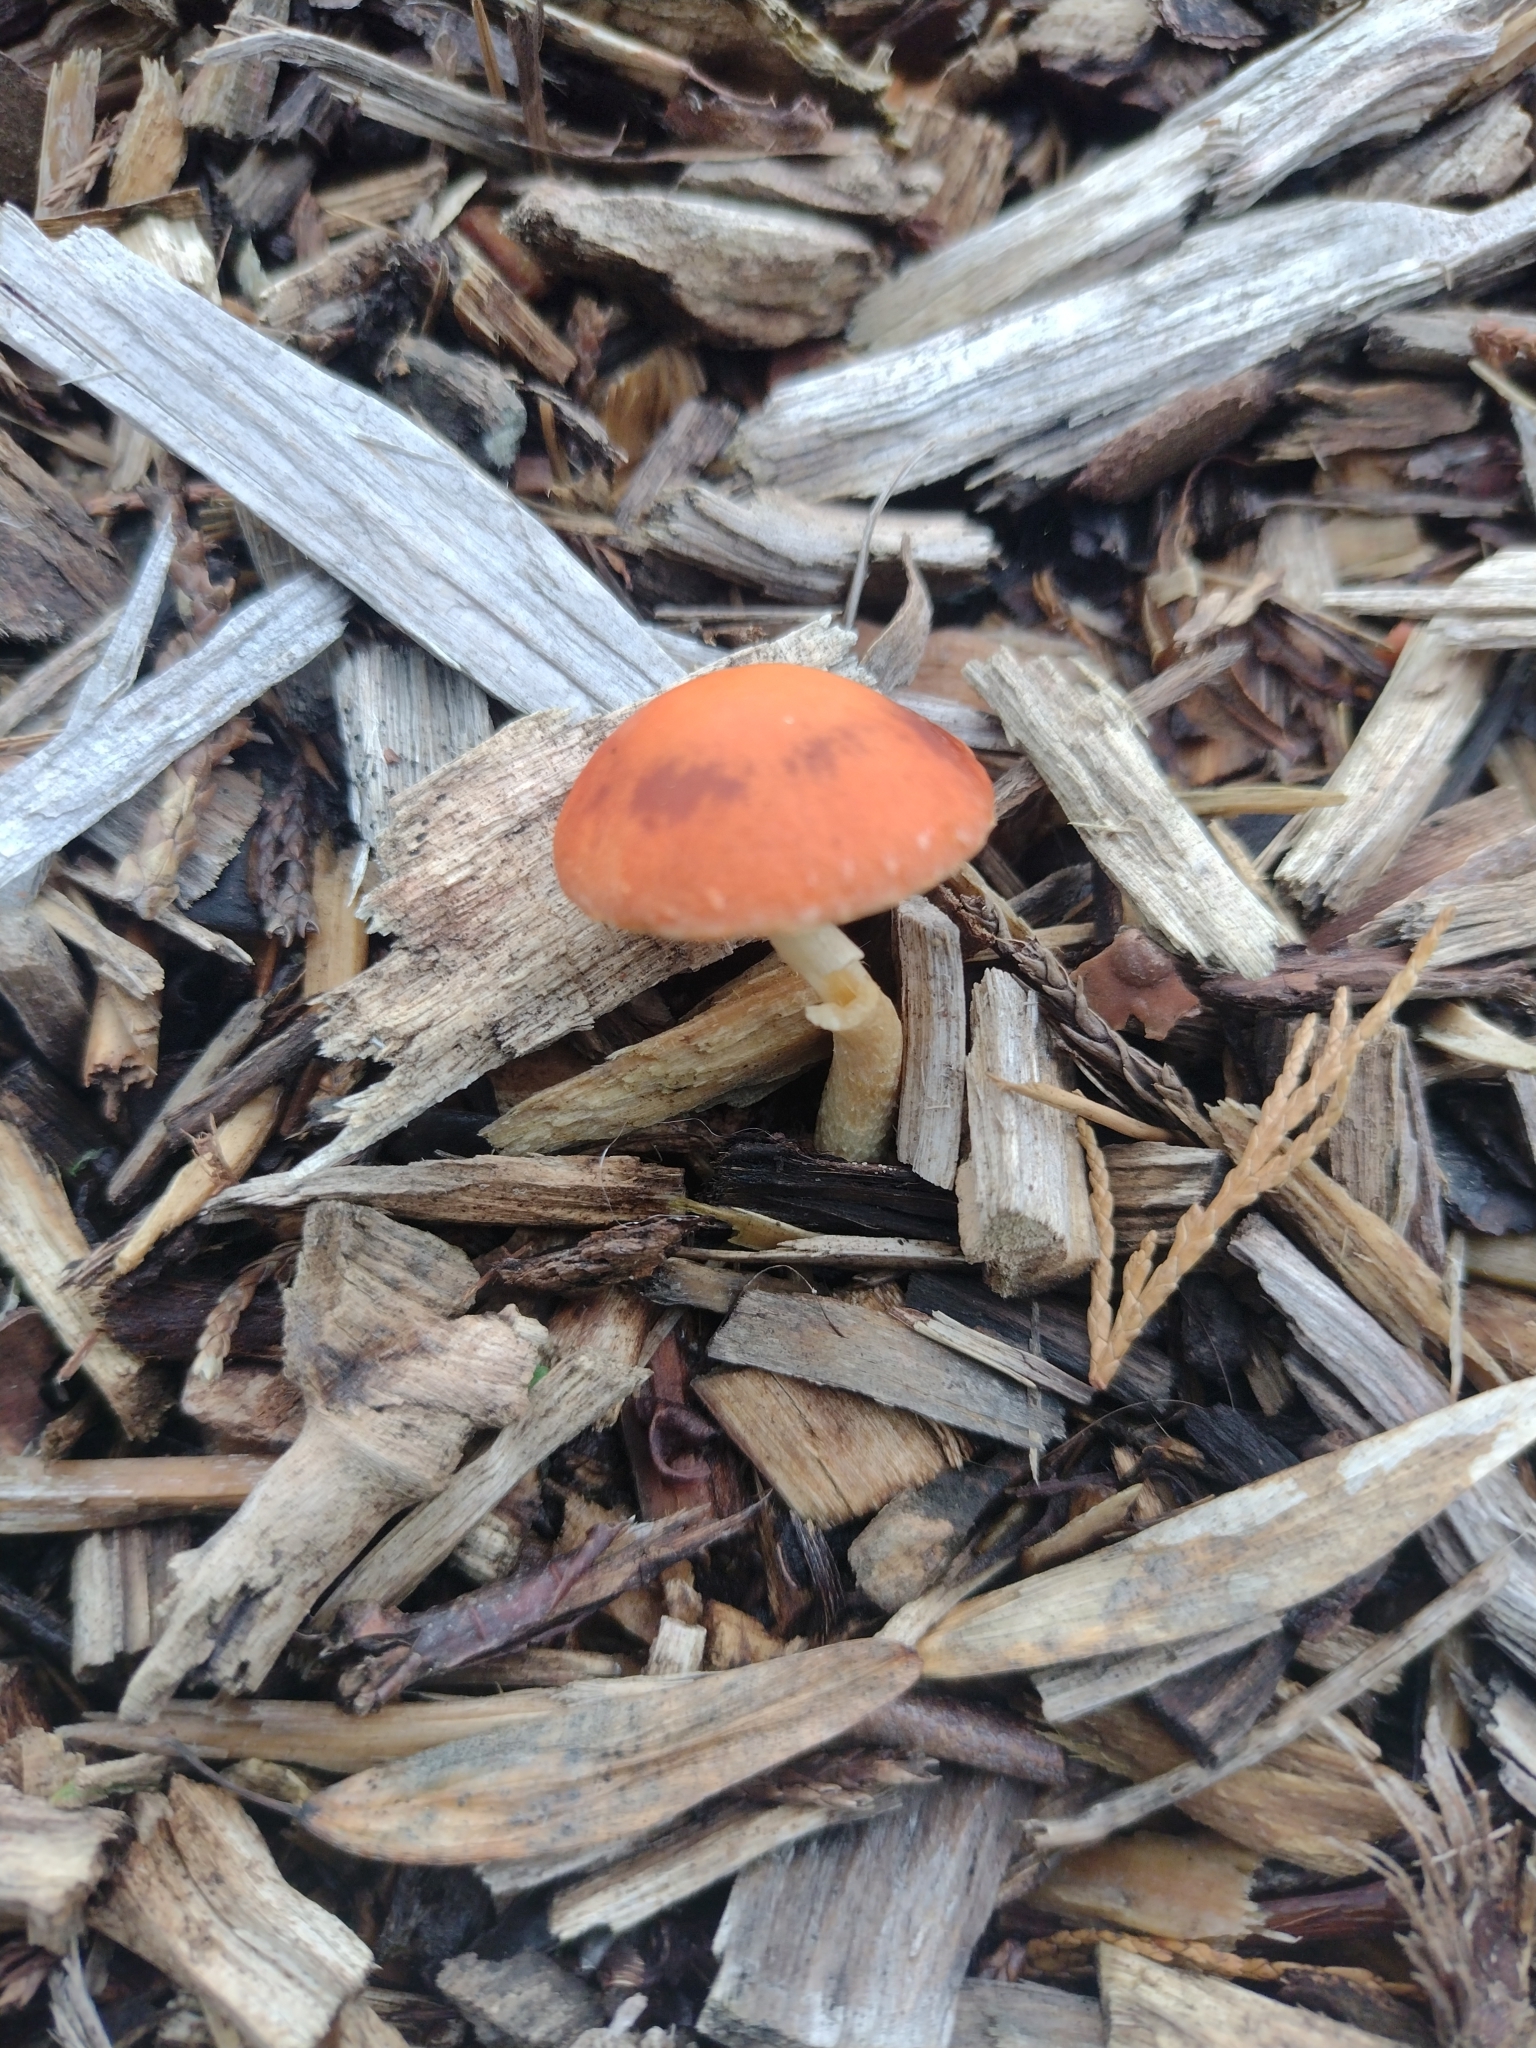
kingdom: Fungi
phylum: Basidiomycota
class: Agaricomycetes
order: Agaricales
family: Strophariaceae
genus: Leratiomyces
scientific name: Leratiomyces ceres
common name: Redlead roundhead
